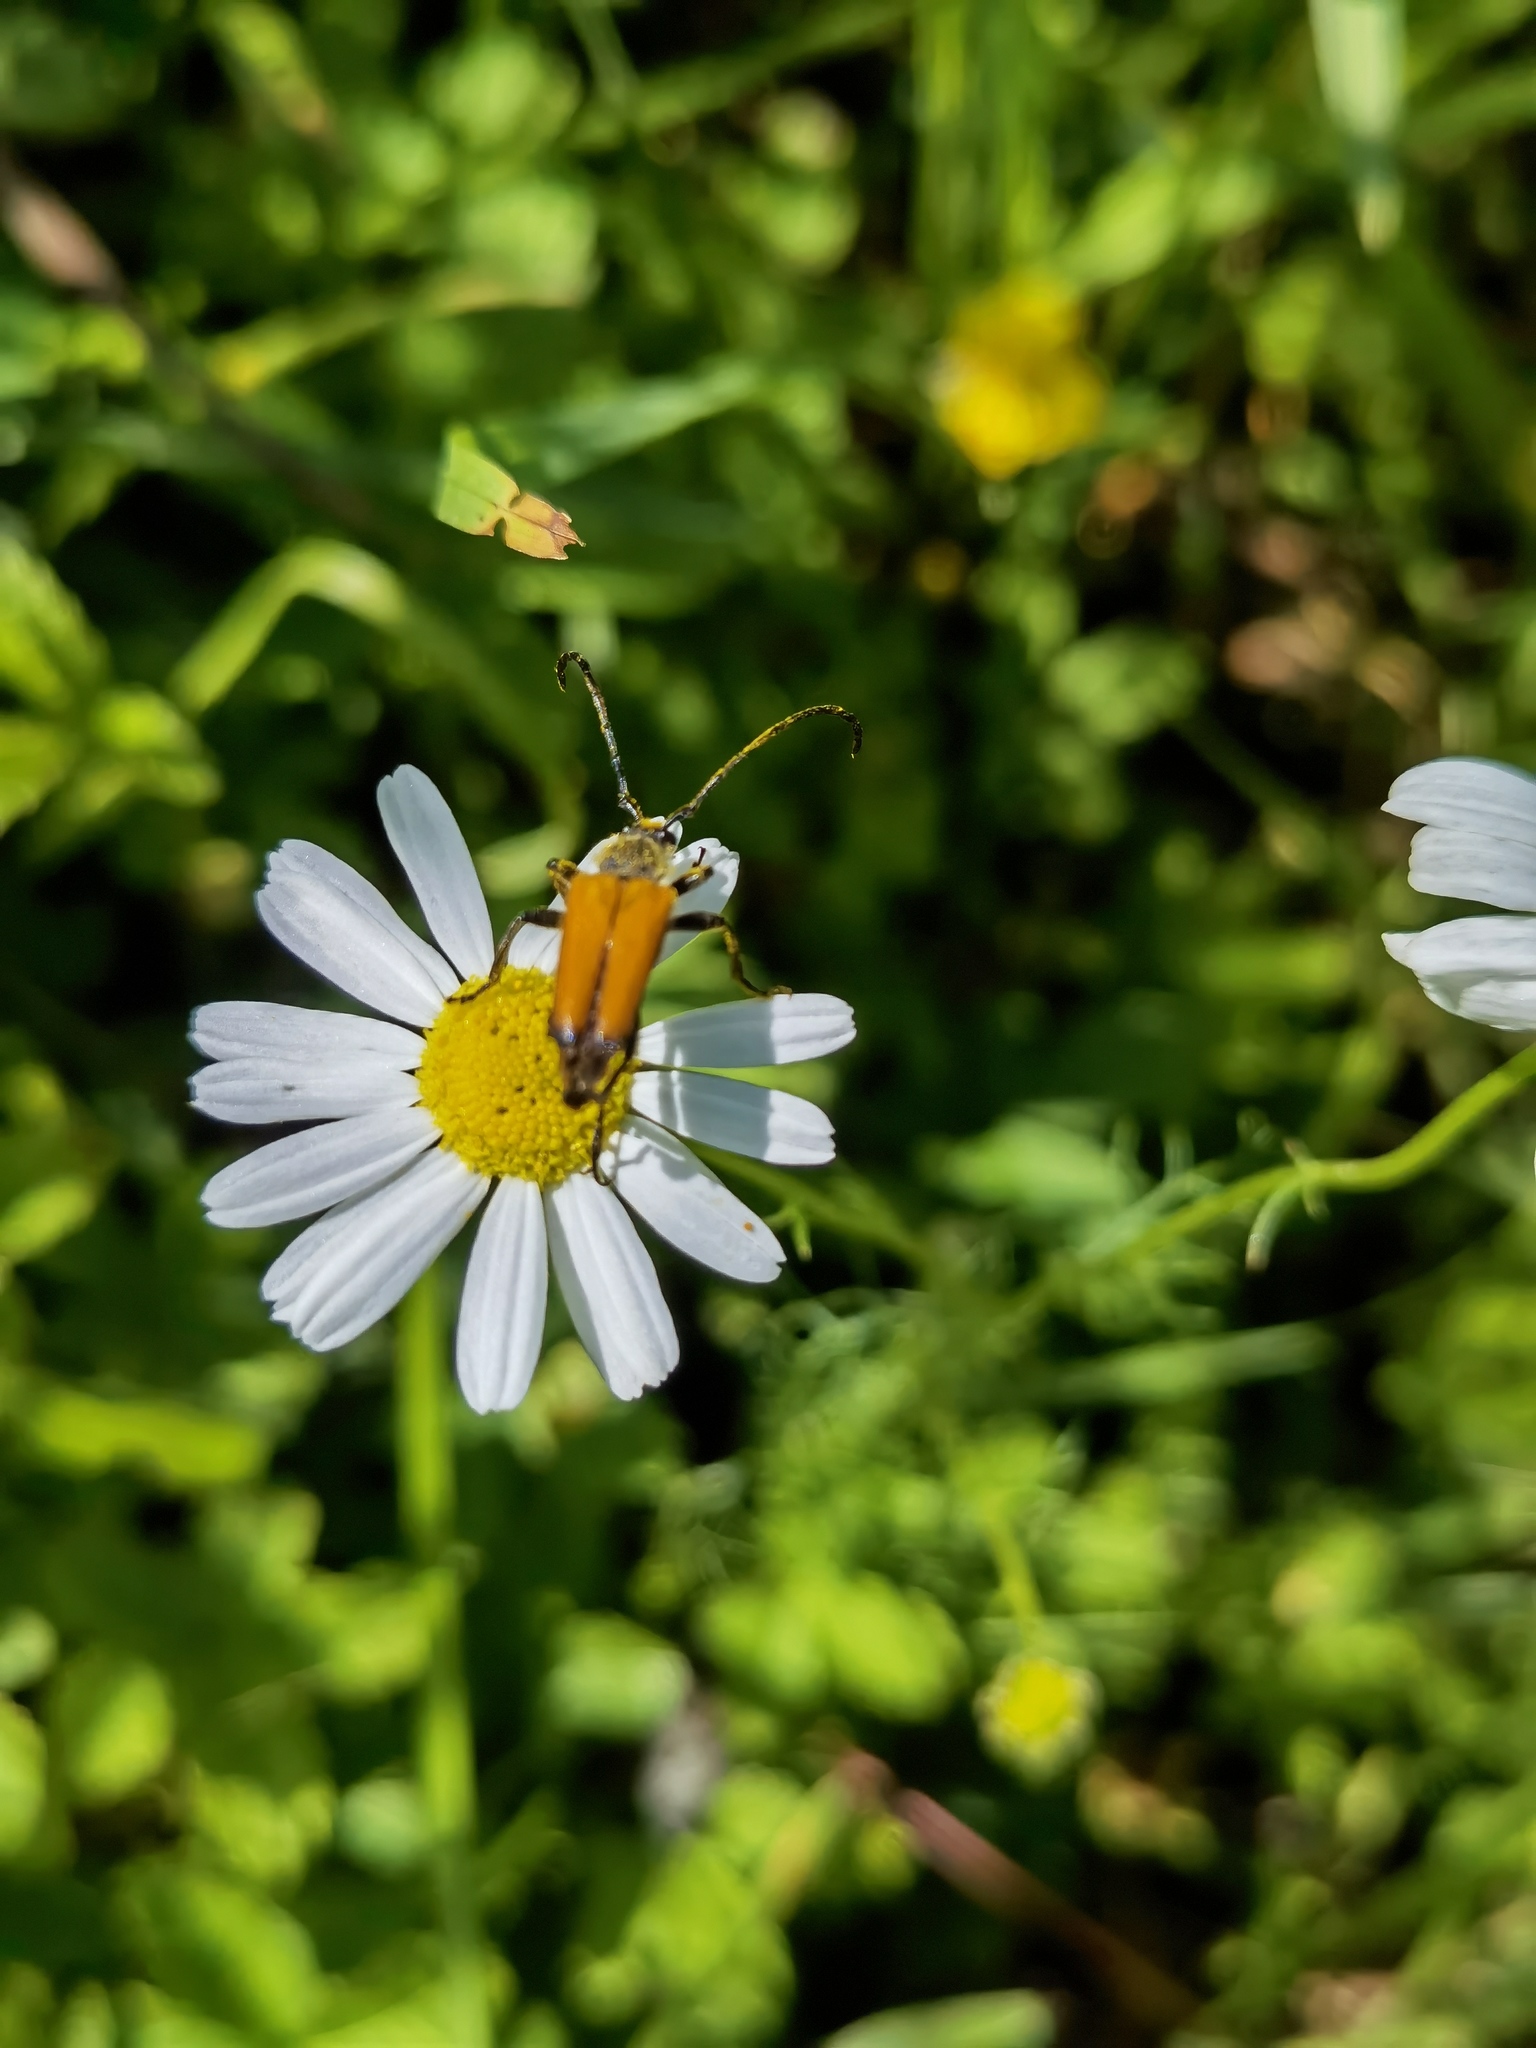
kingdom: Animalia
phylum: Arthropoda
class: Insecta
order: Coleoptera
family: Cerambycidae
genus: Paracorymbia
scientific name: Paracorymbia fulva
